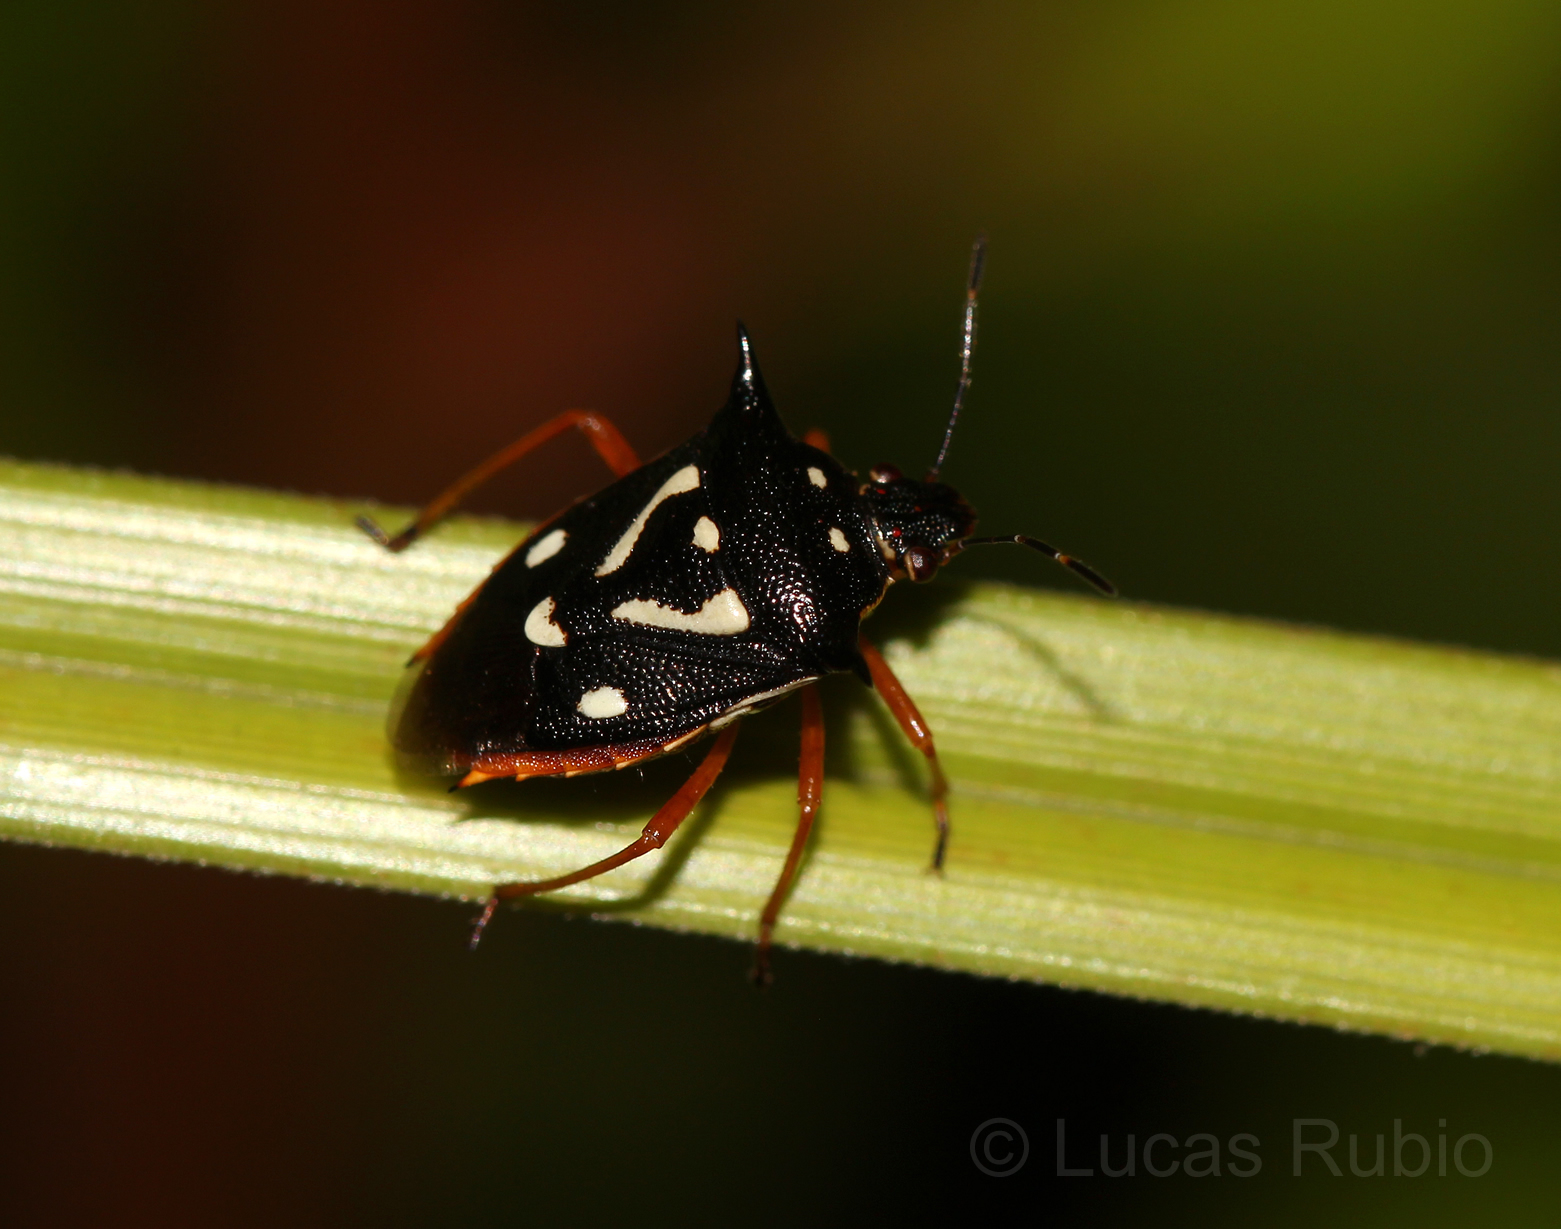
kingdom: Animalia
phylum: Arthropoda
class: Insecta
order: Hemiptera
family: Pentatomidae
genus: Mormidea
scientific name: Mormidea v-luteum
